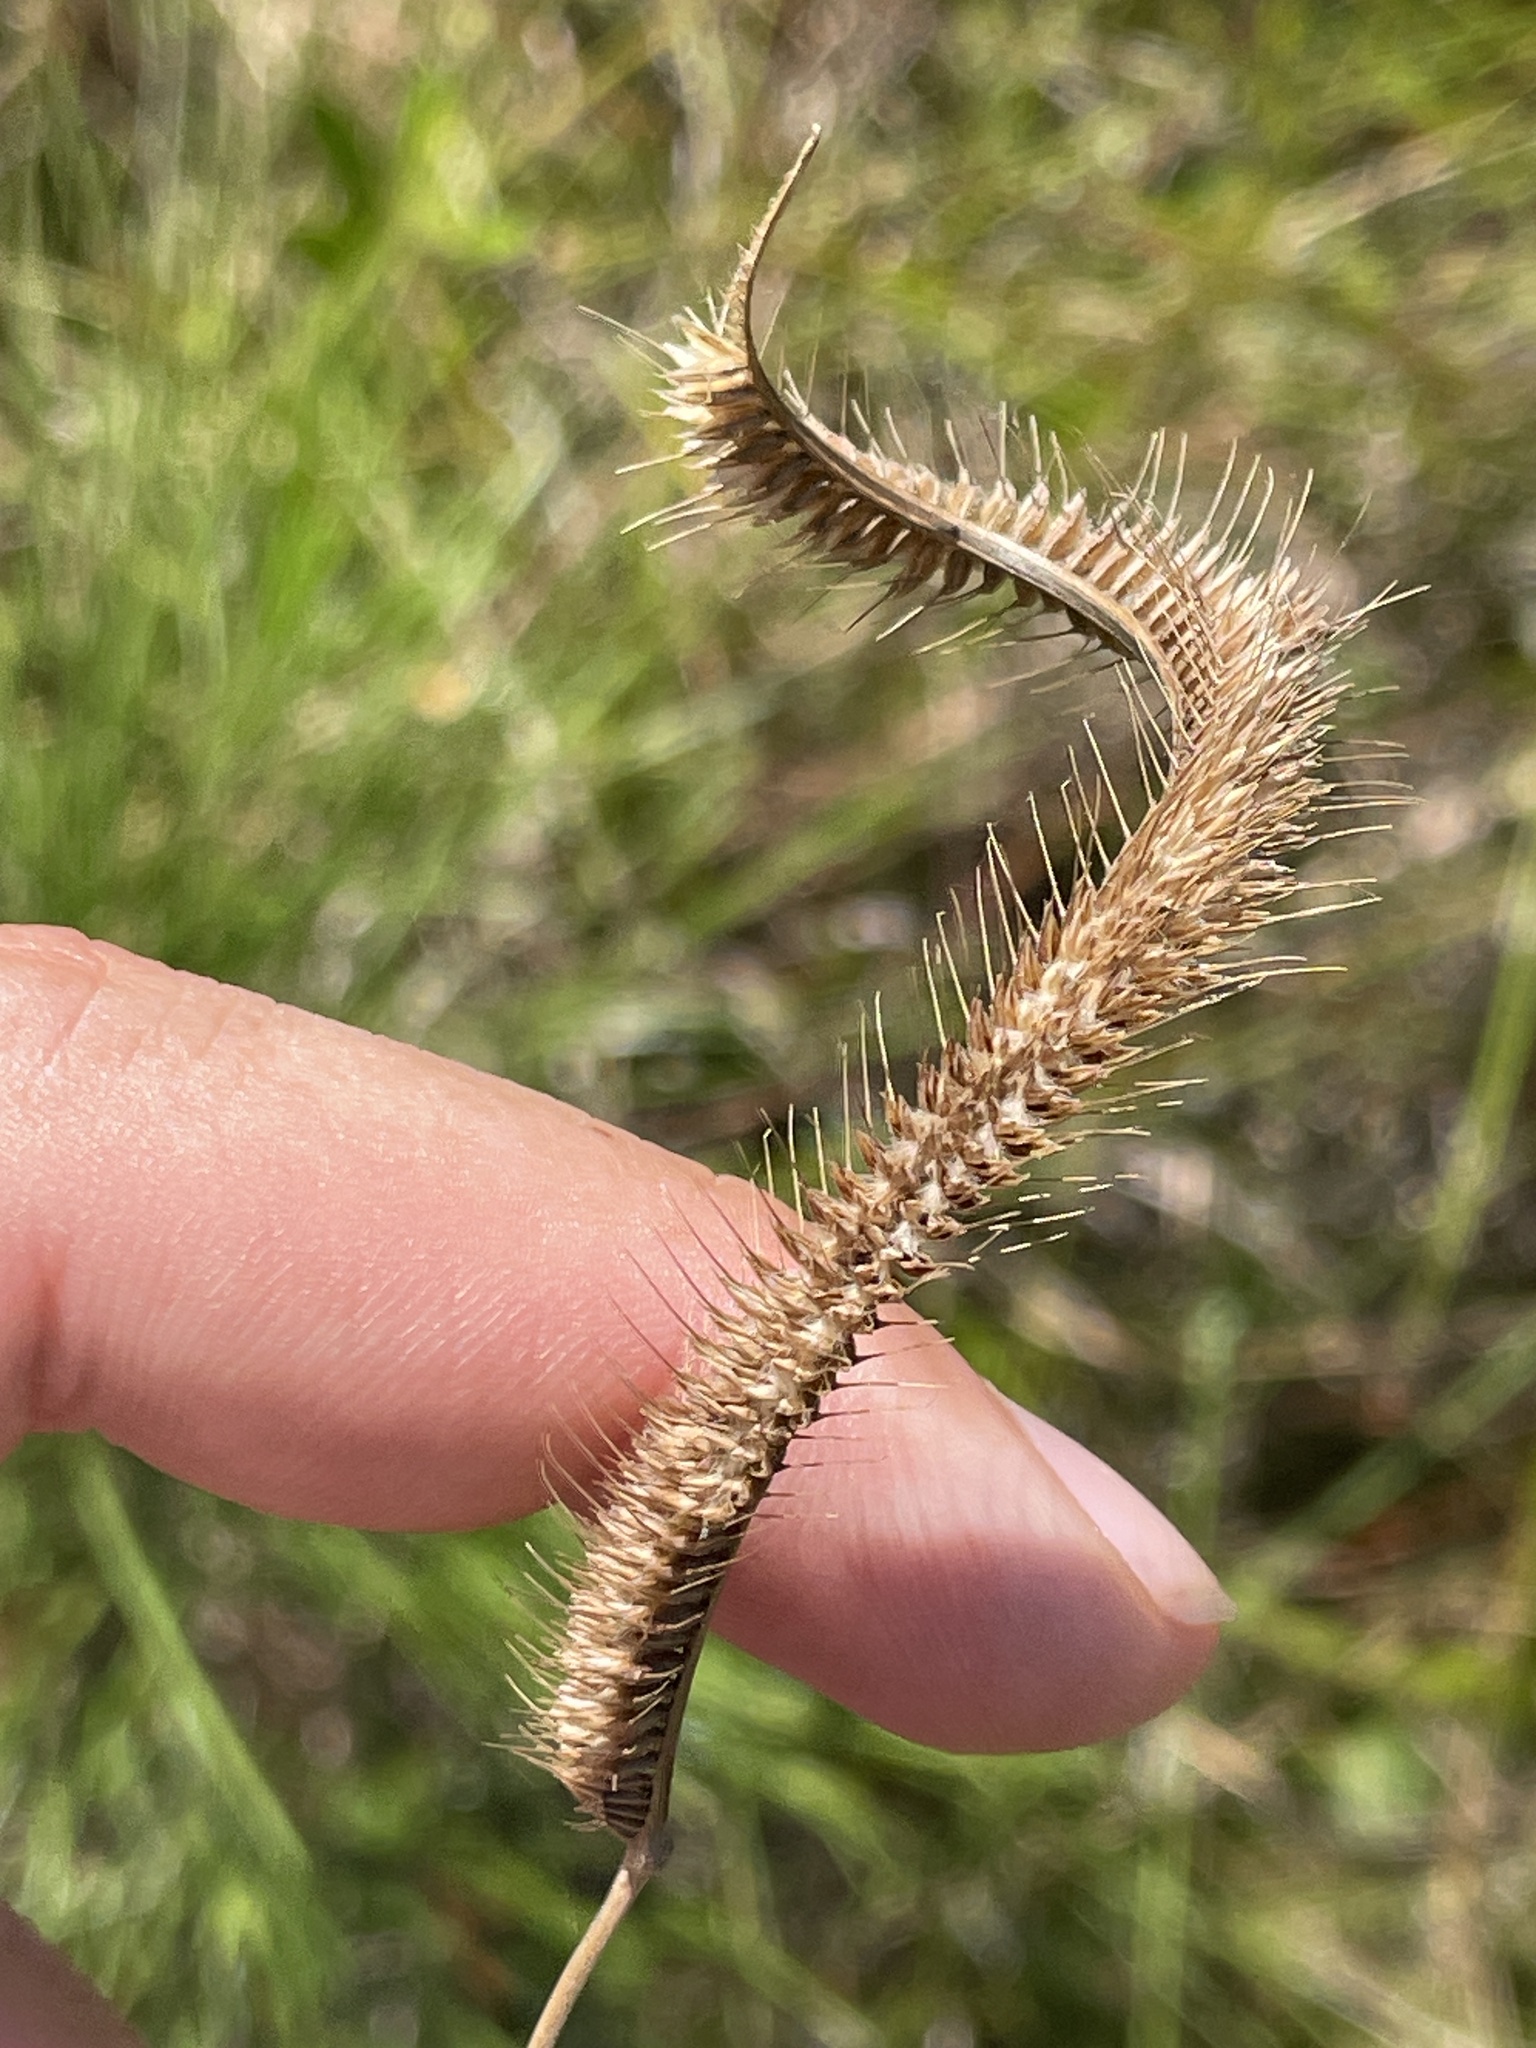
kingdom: Plantae
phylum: Tracheophyta
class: Liliopsida
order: Poales
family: Poaceae
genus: Ctenium
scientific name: Ctenium aromaticum
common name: Toothache grass
